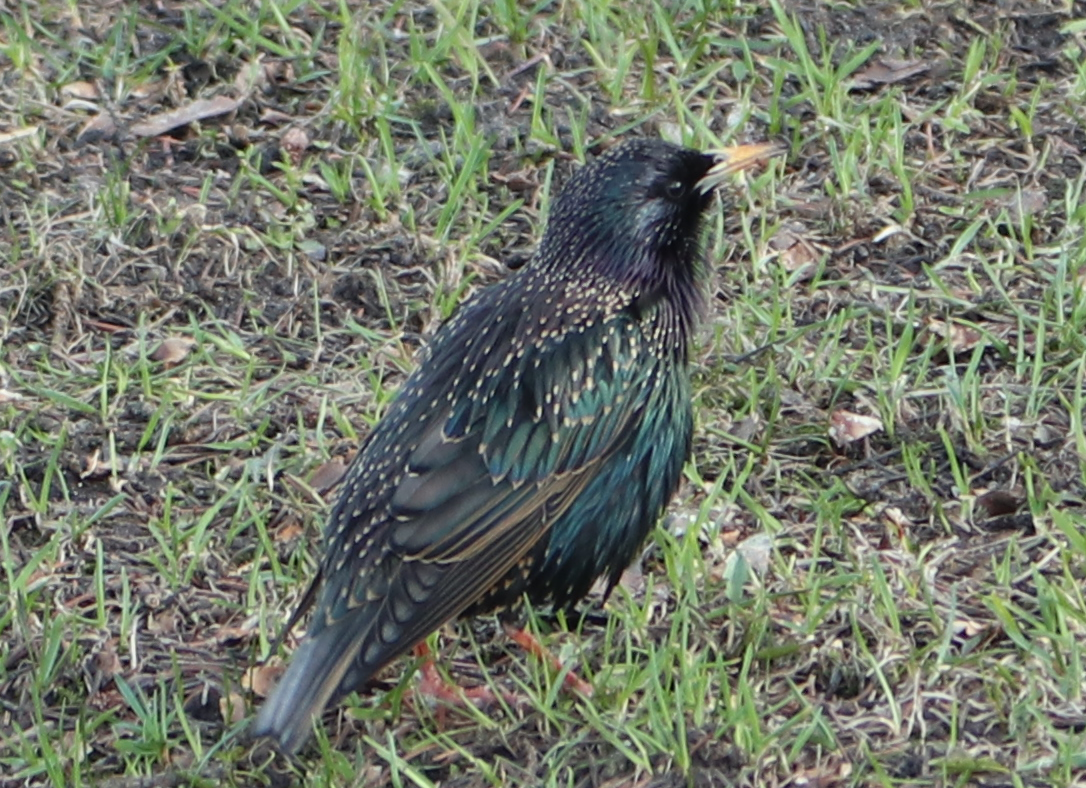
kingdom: Animalia
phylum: Chordata
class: Aves
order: Passeriformes
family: Sturnidae
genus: Sturnus
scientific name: Sturnus vulgaris
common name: Common starling
